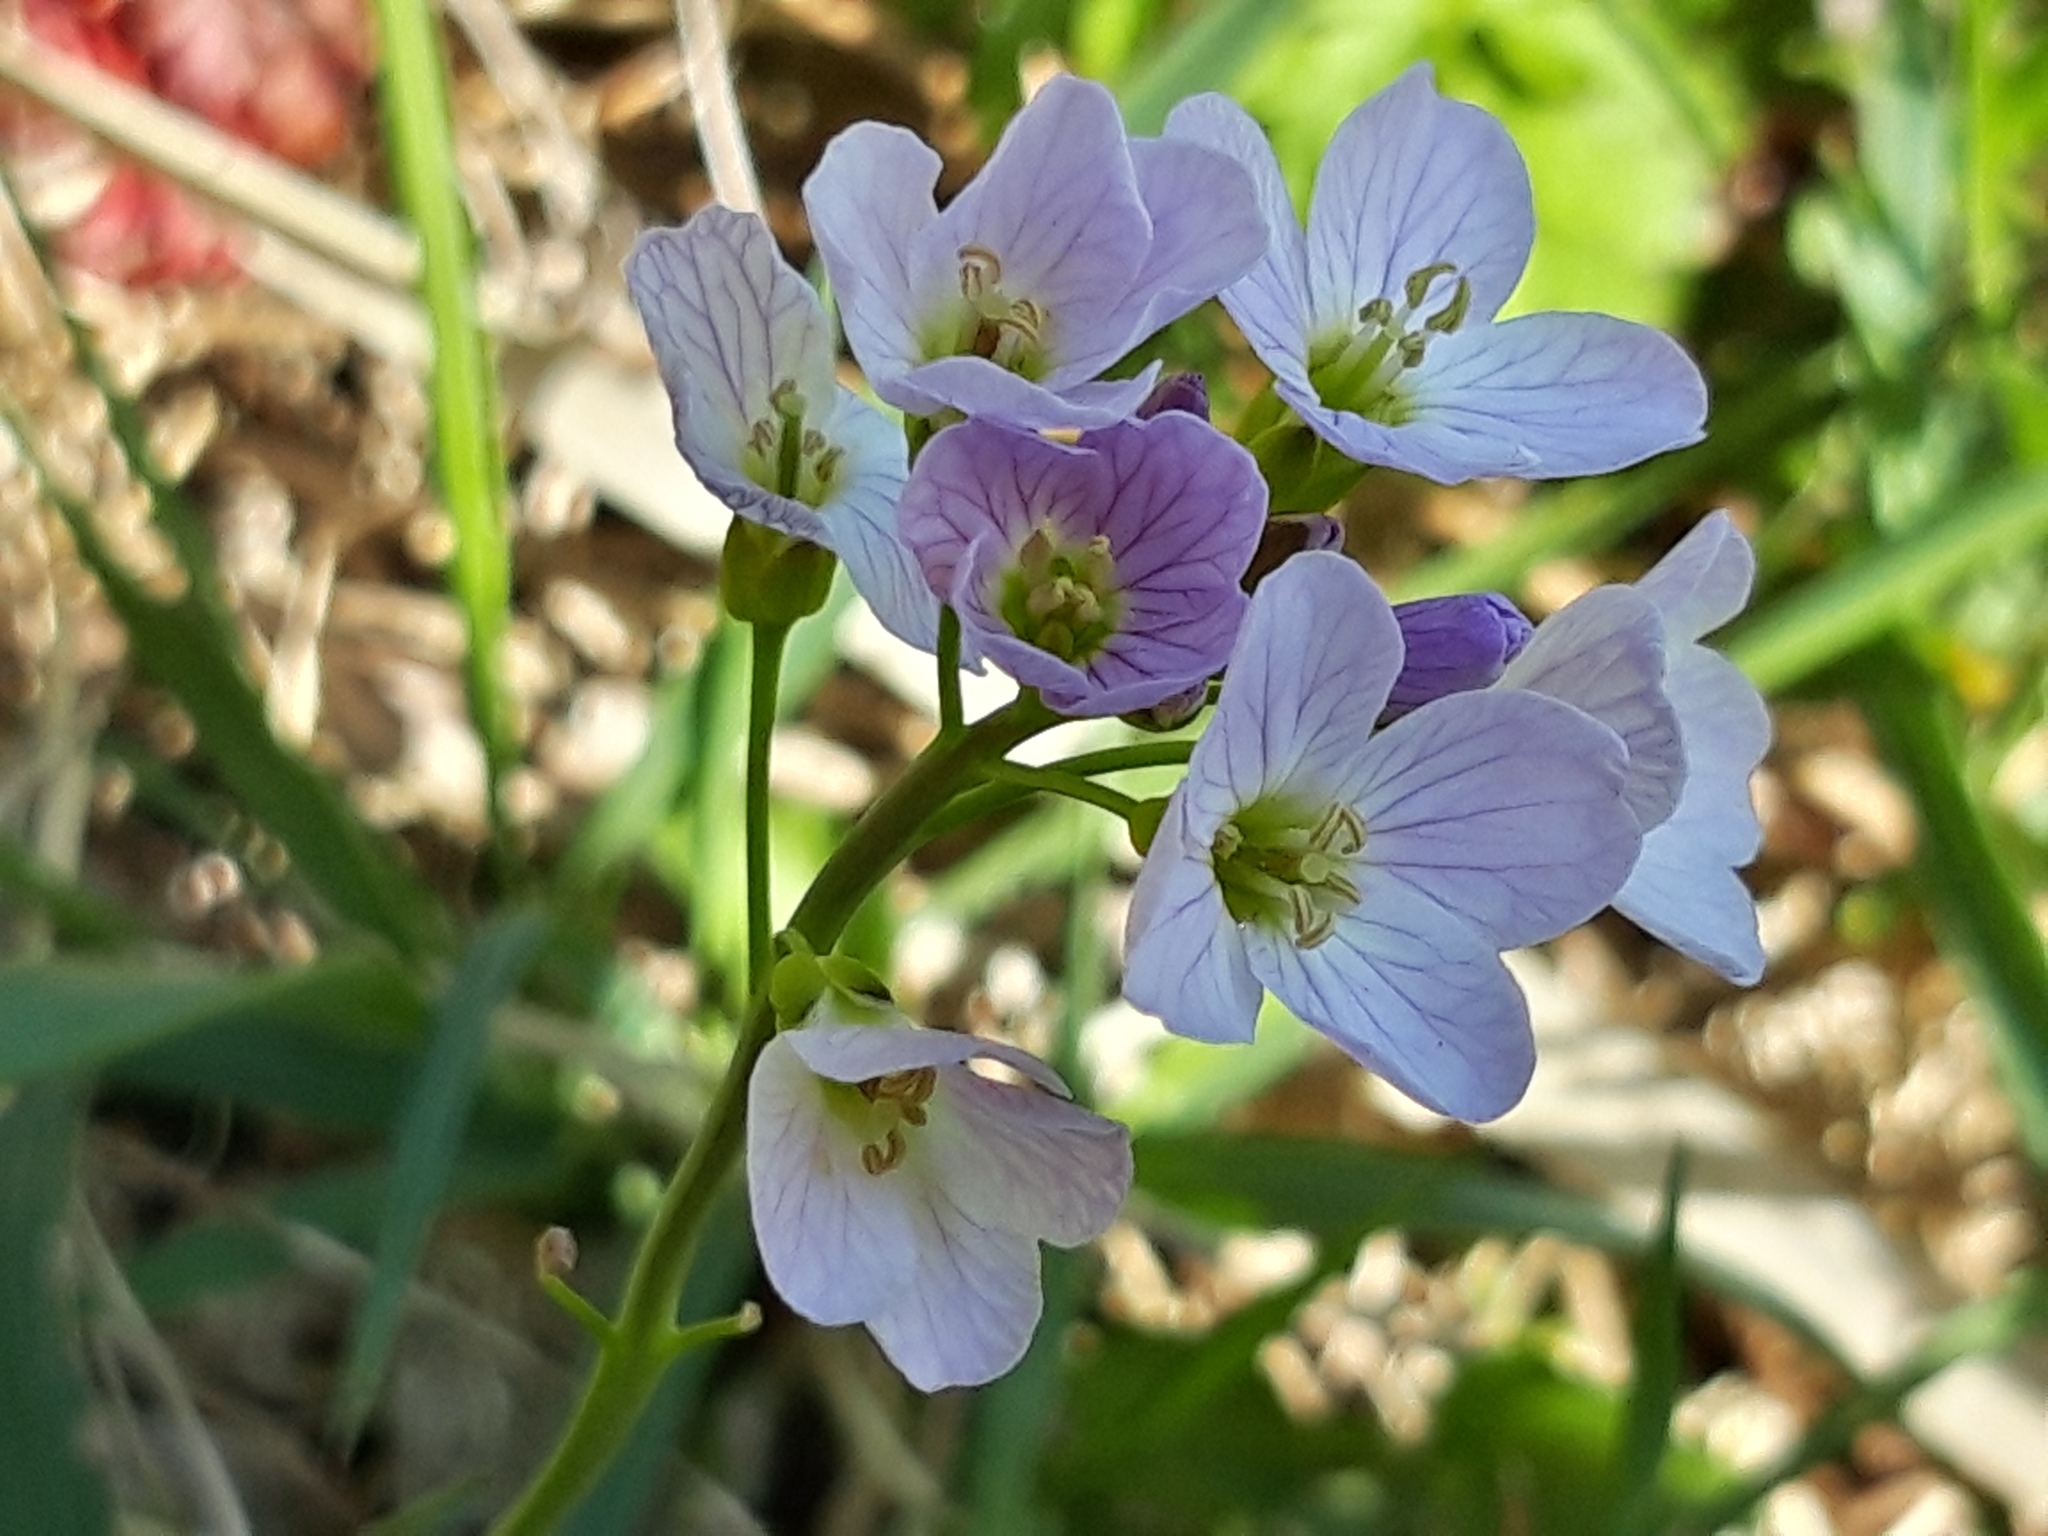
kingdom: Plantae
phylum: Tracheophyta
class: Magnoliopsida
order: Brassicales
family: Brassicaceae
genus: Cardamine
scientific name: Cardamine pratensis
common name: Cuckoo flower
